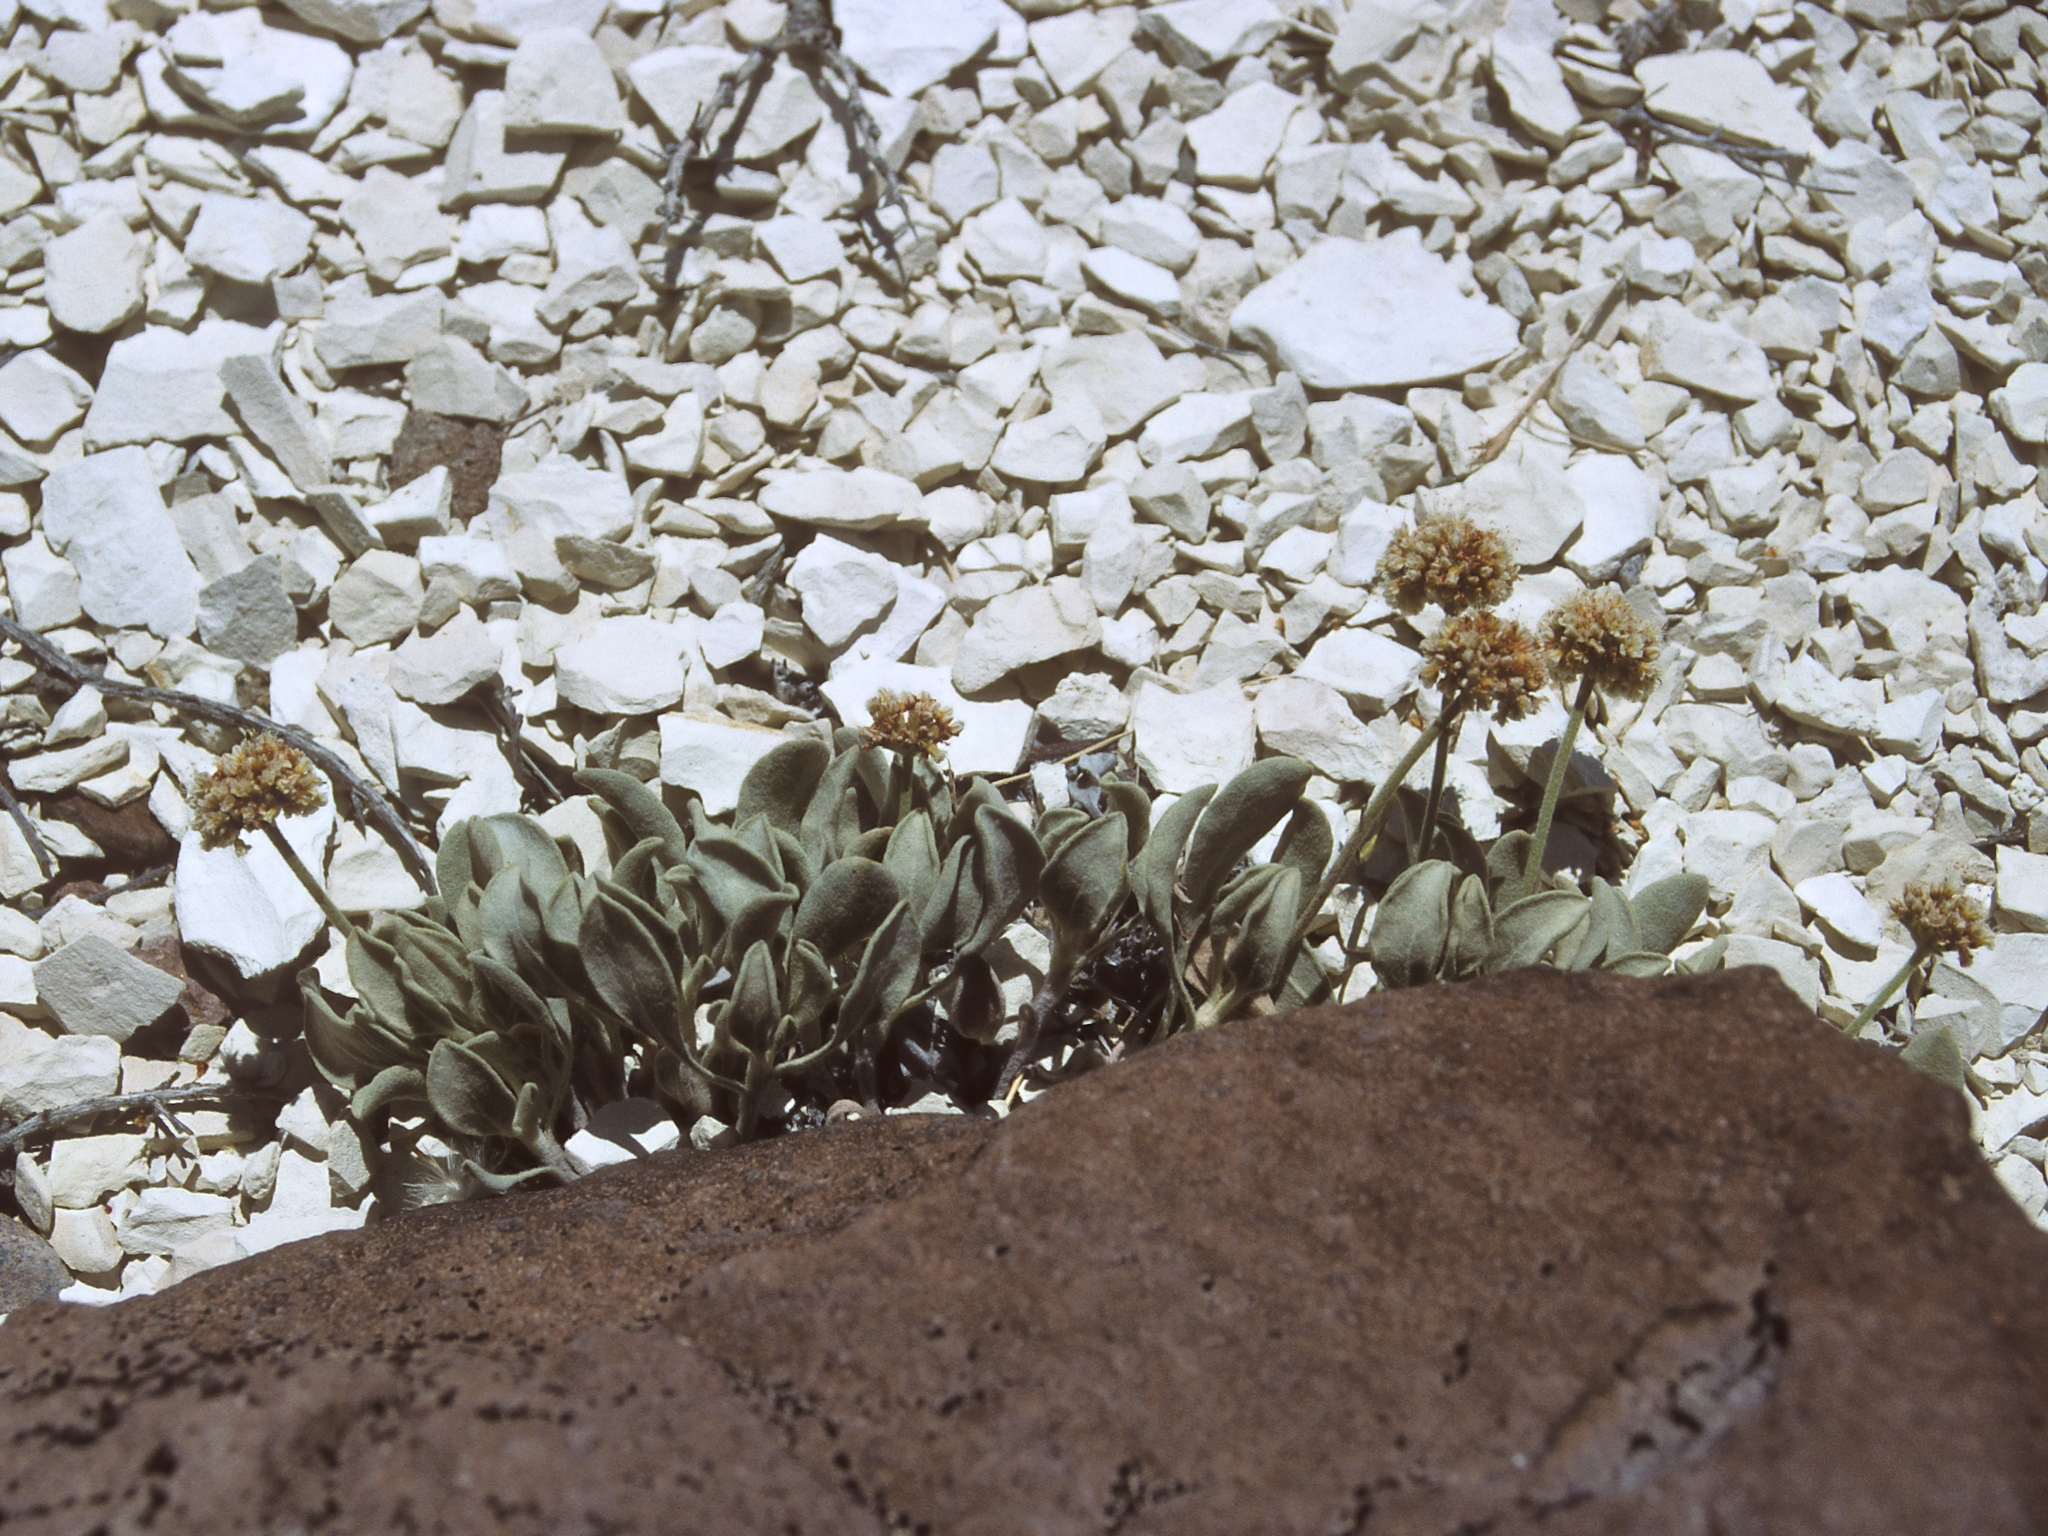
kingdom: Plantae
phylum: Tracheophyta
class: Magnoliopsida
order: Caryophyllales
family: Polygonaceae
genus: Eriogonum
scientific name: Eriogonum diatomaceum
